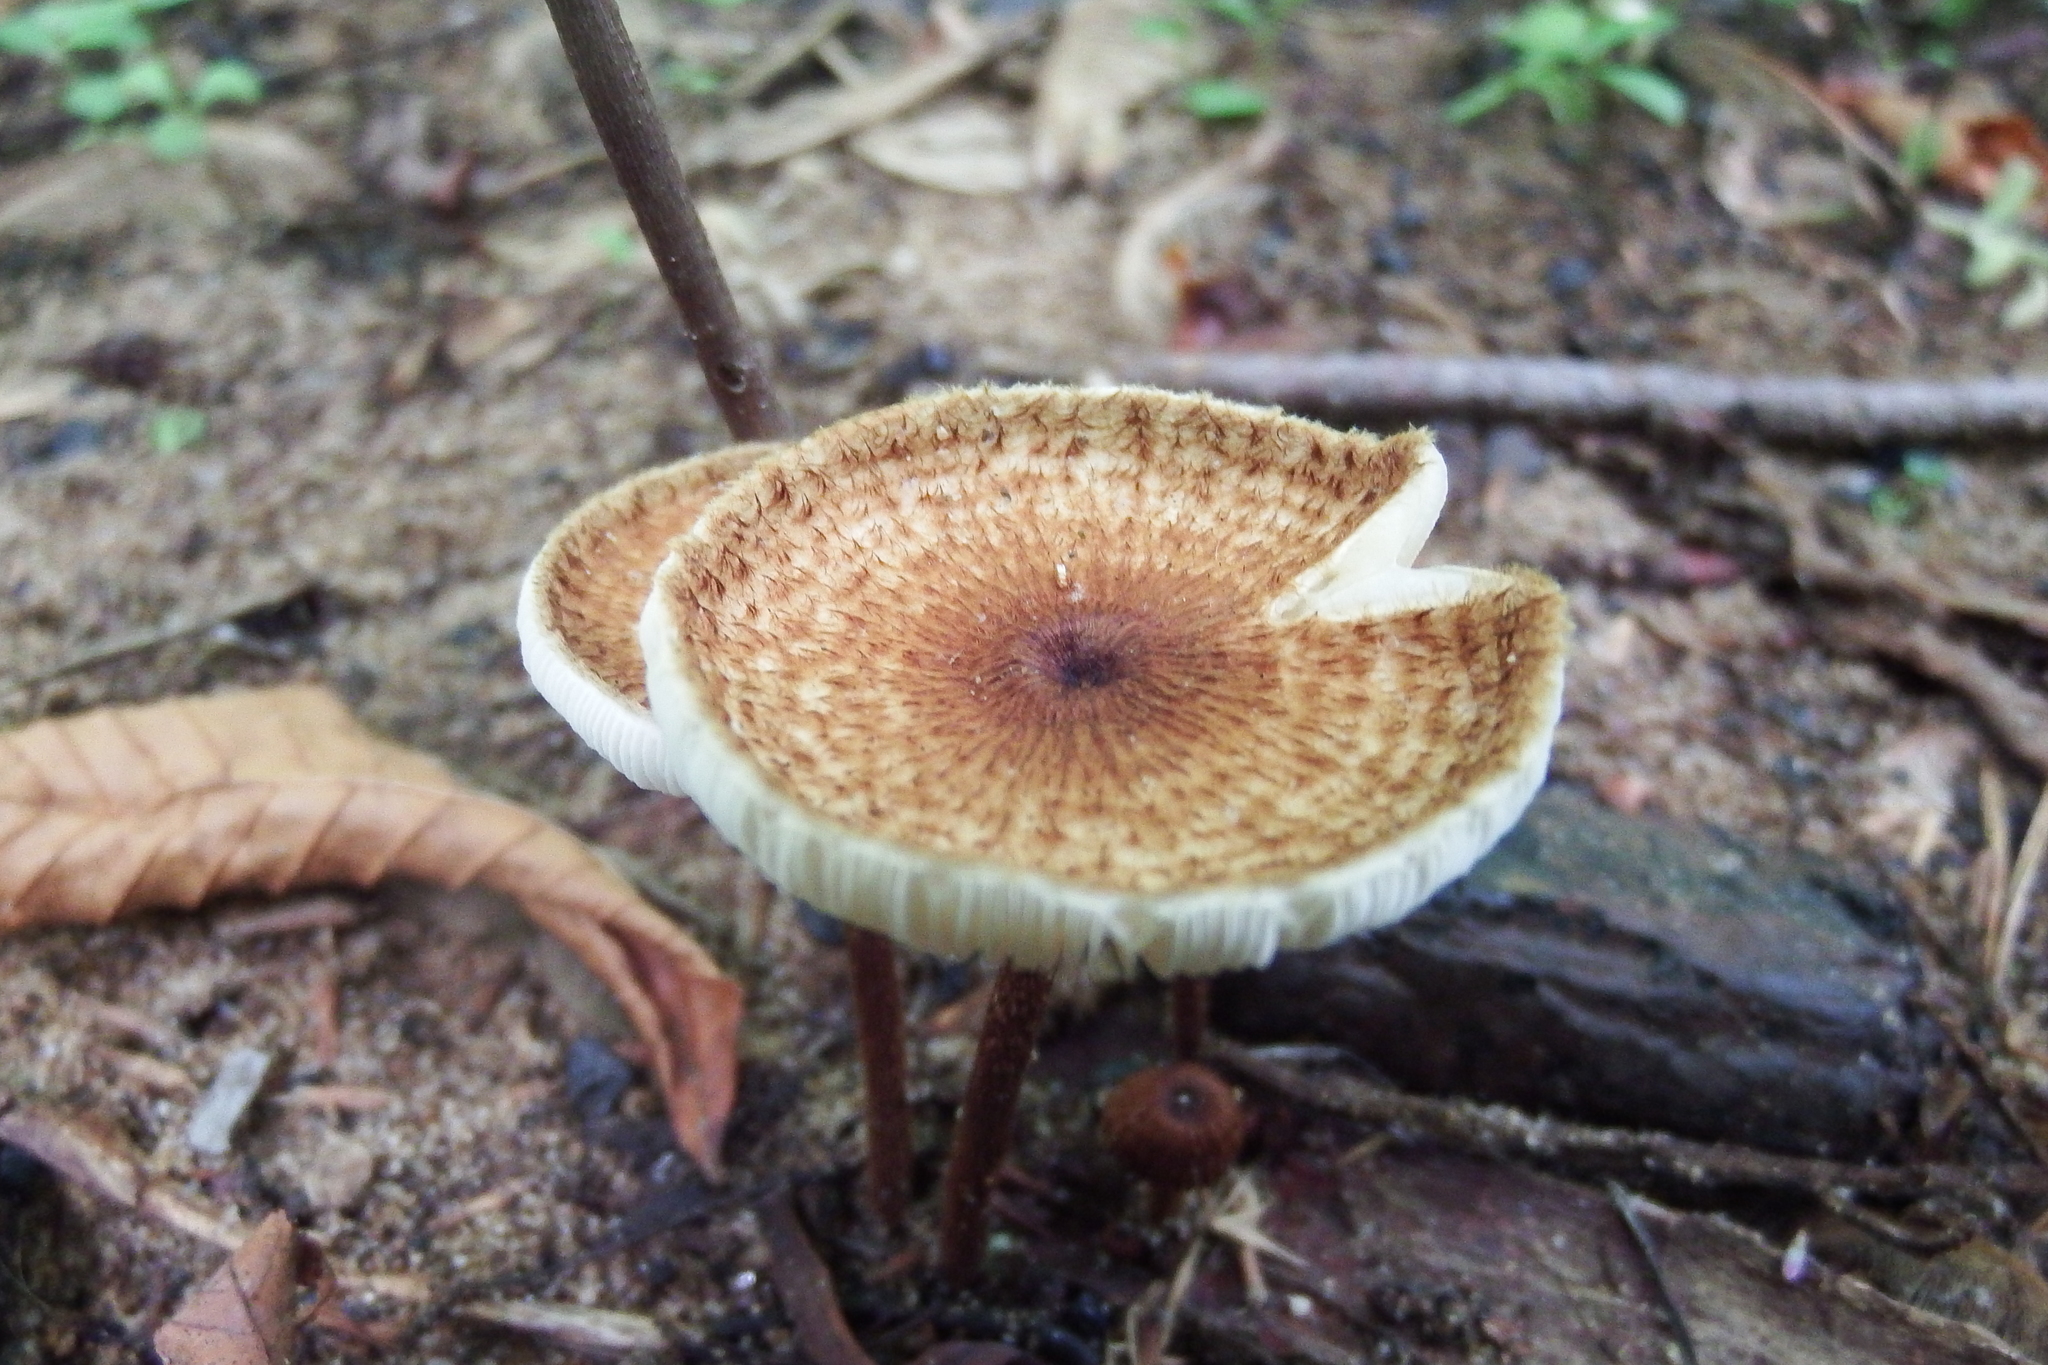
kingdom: Fungi
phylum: Basidiomycota
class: Agaricomycetes
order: Agaricales
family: Tricholomataceae
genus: Collybia
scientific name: Collybia zonata
